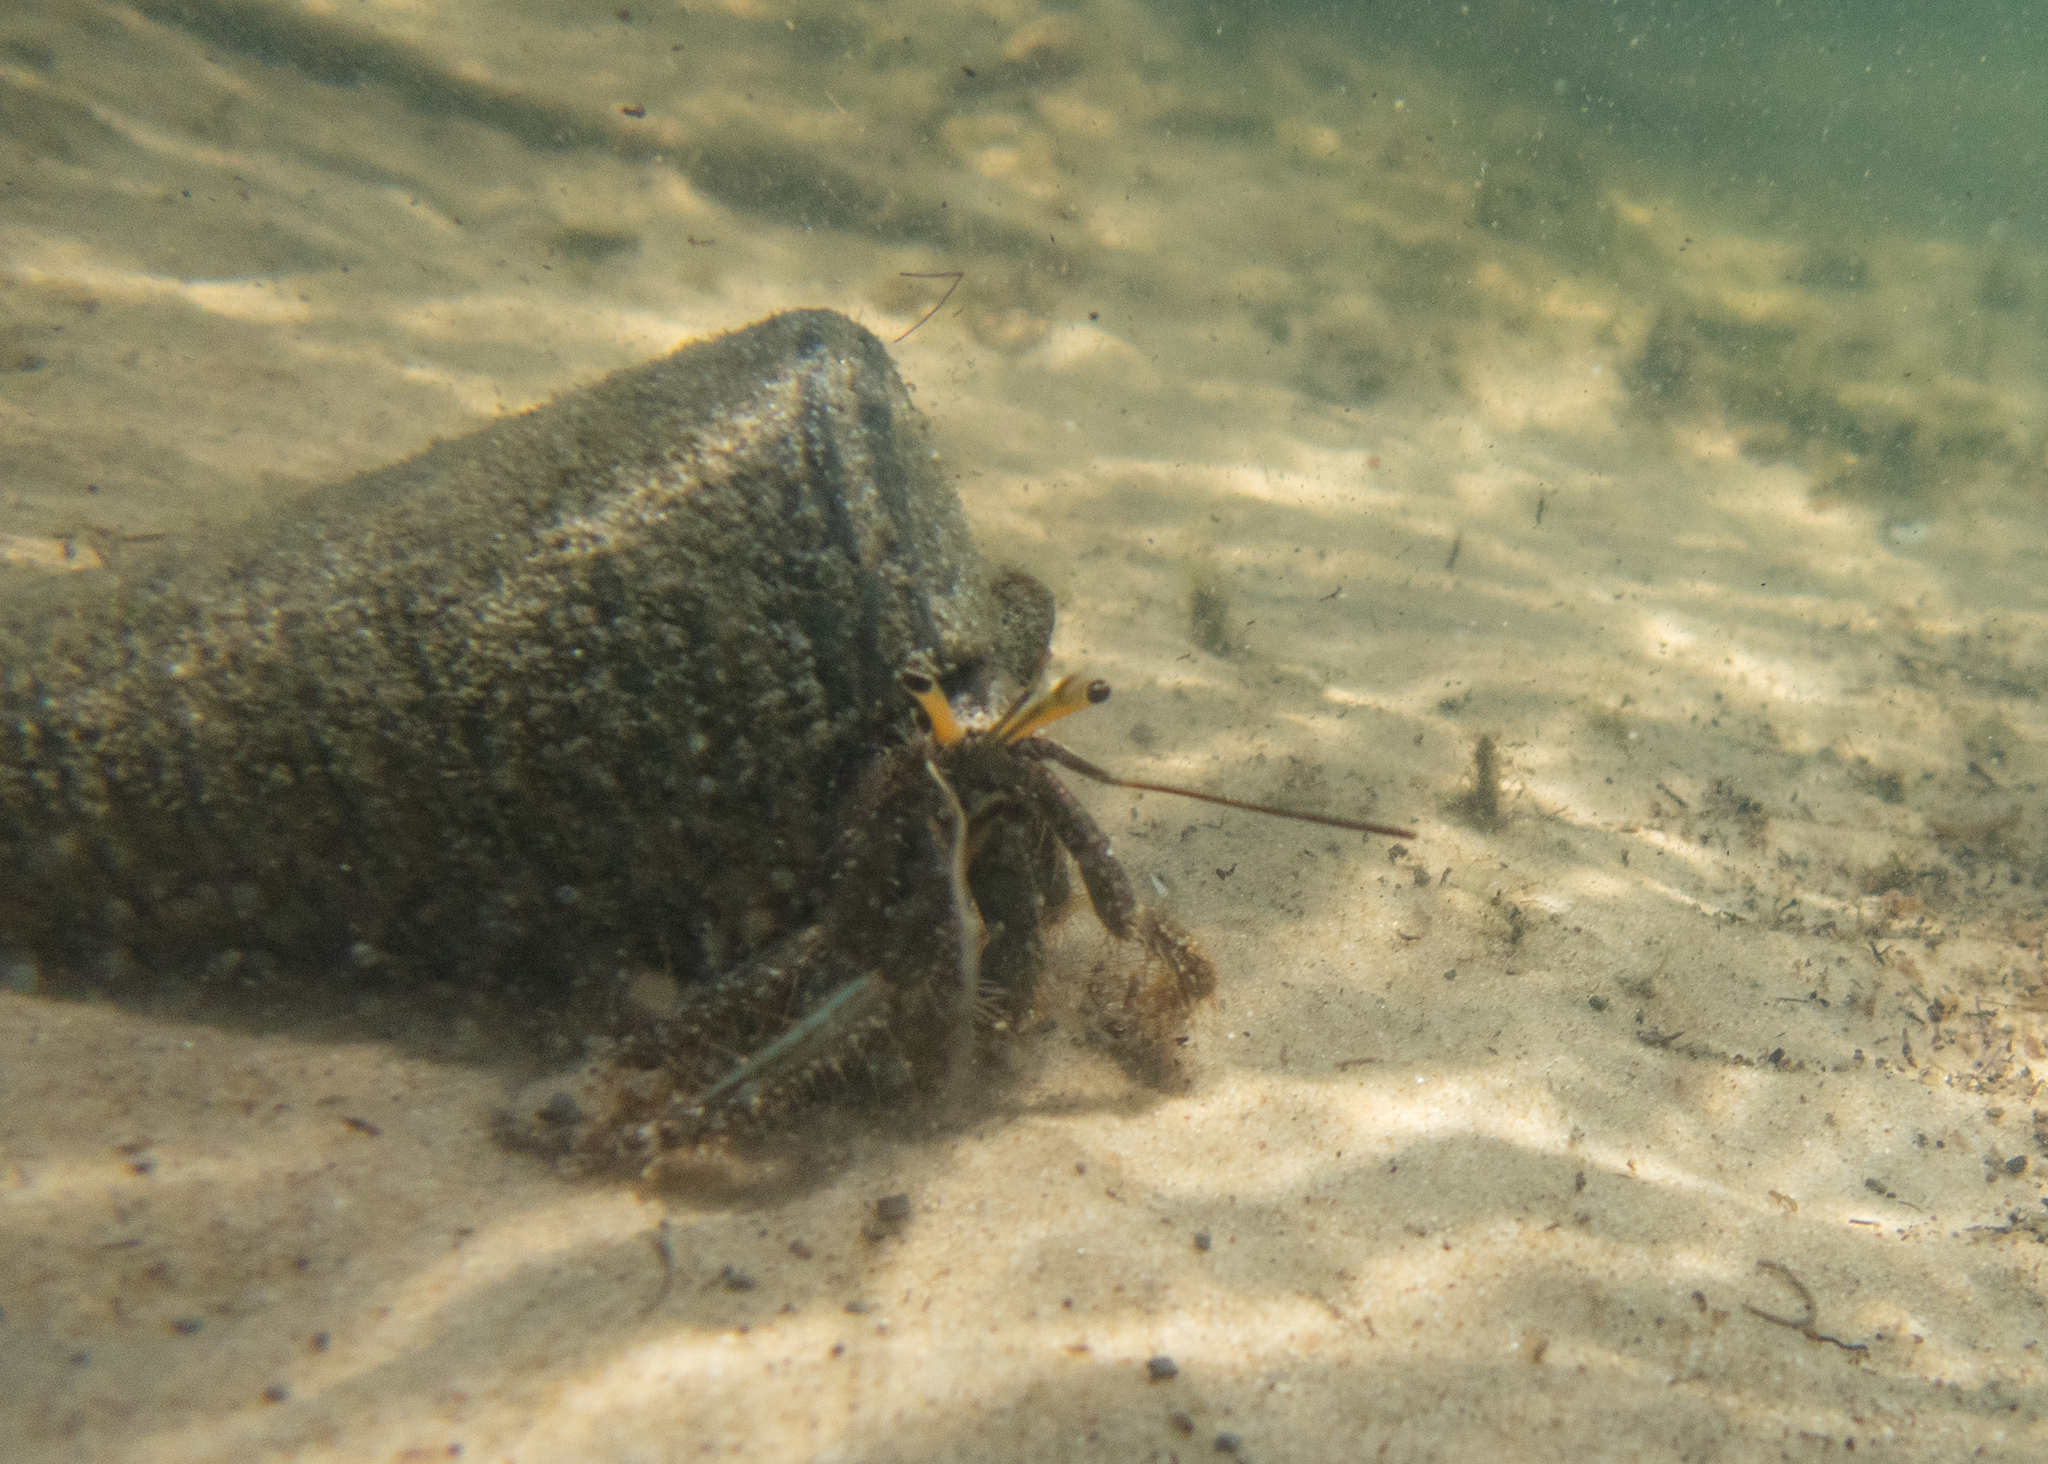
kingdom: Animalia
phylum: Arthropoda
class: Malacostraca
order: Decapoda
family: Diogenidae
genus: Clibanarius
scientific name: Clibanarius longitarsus
